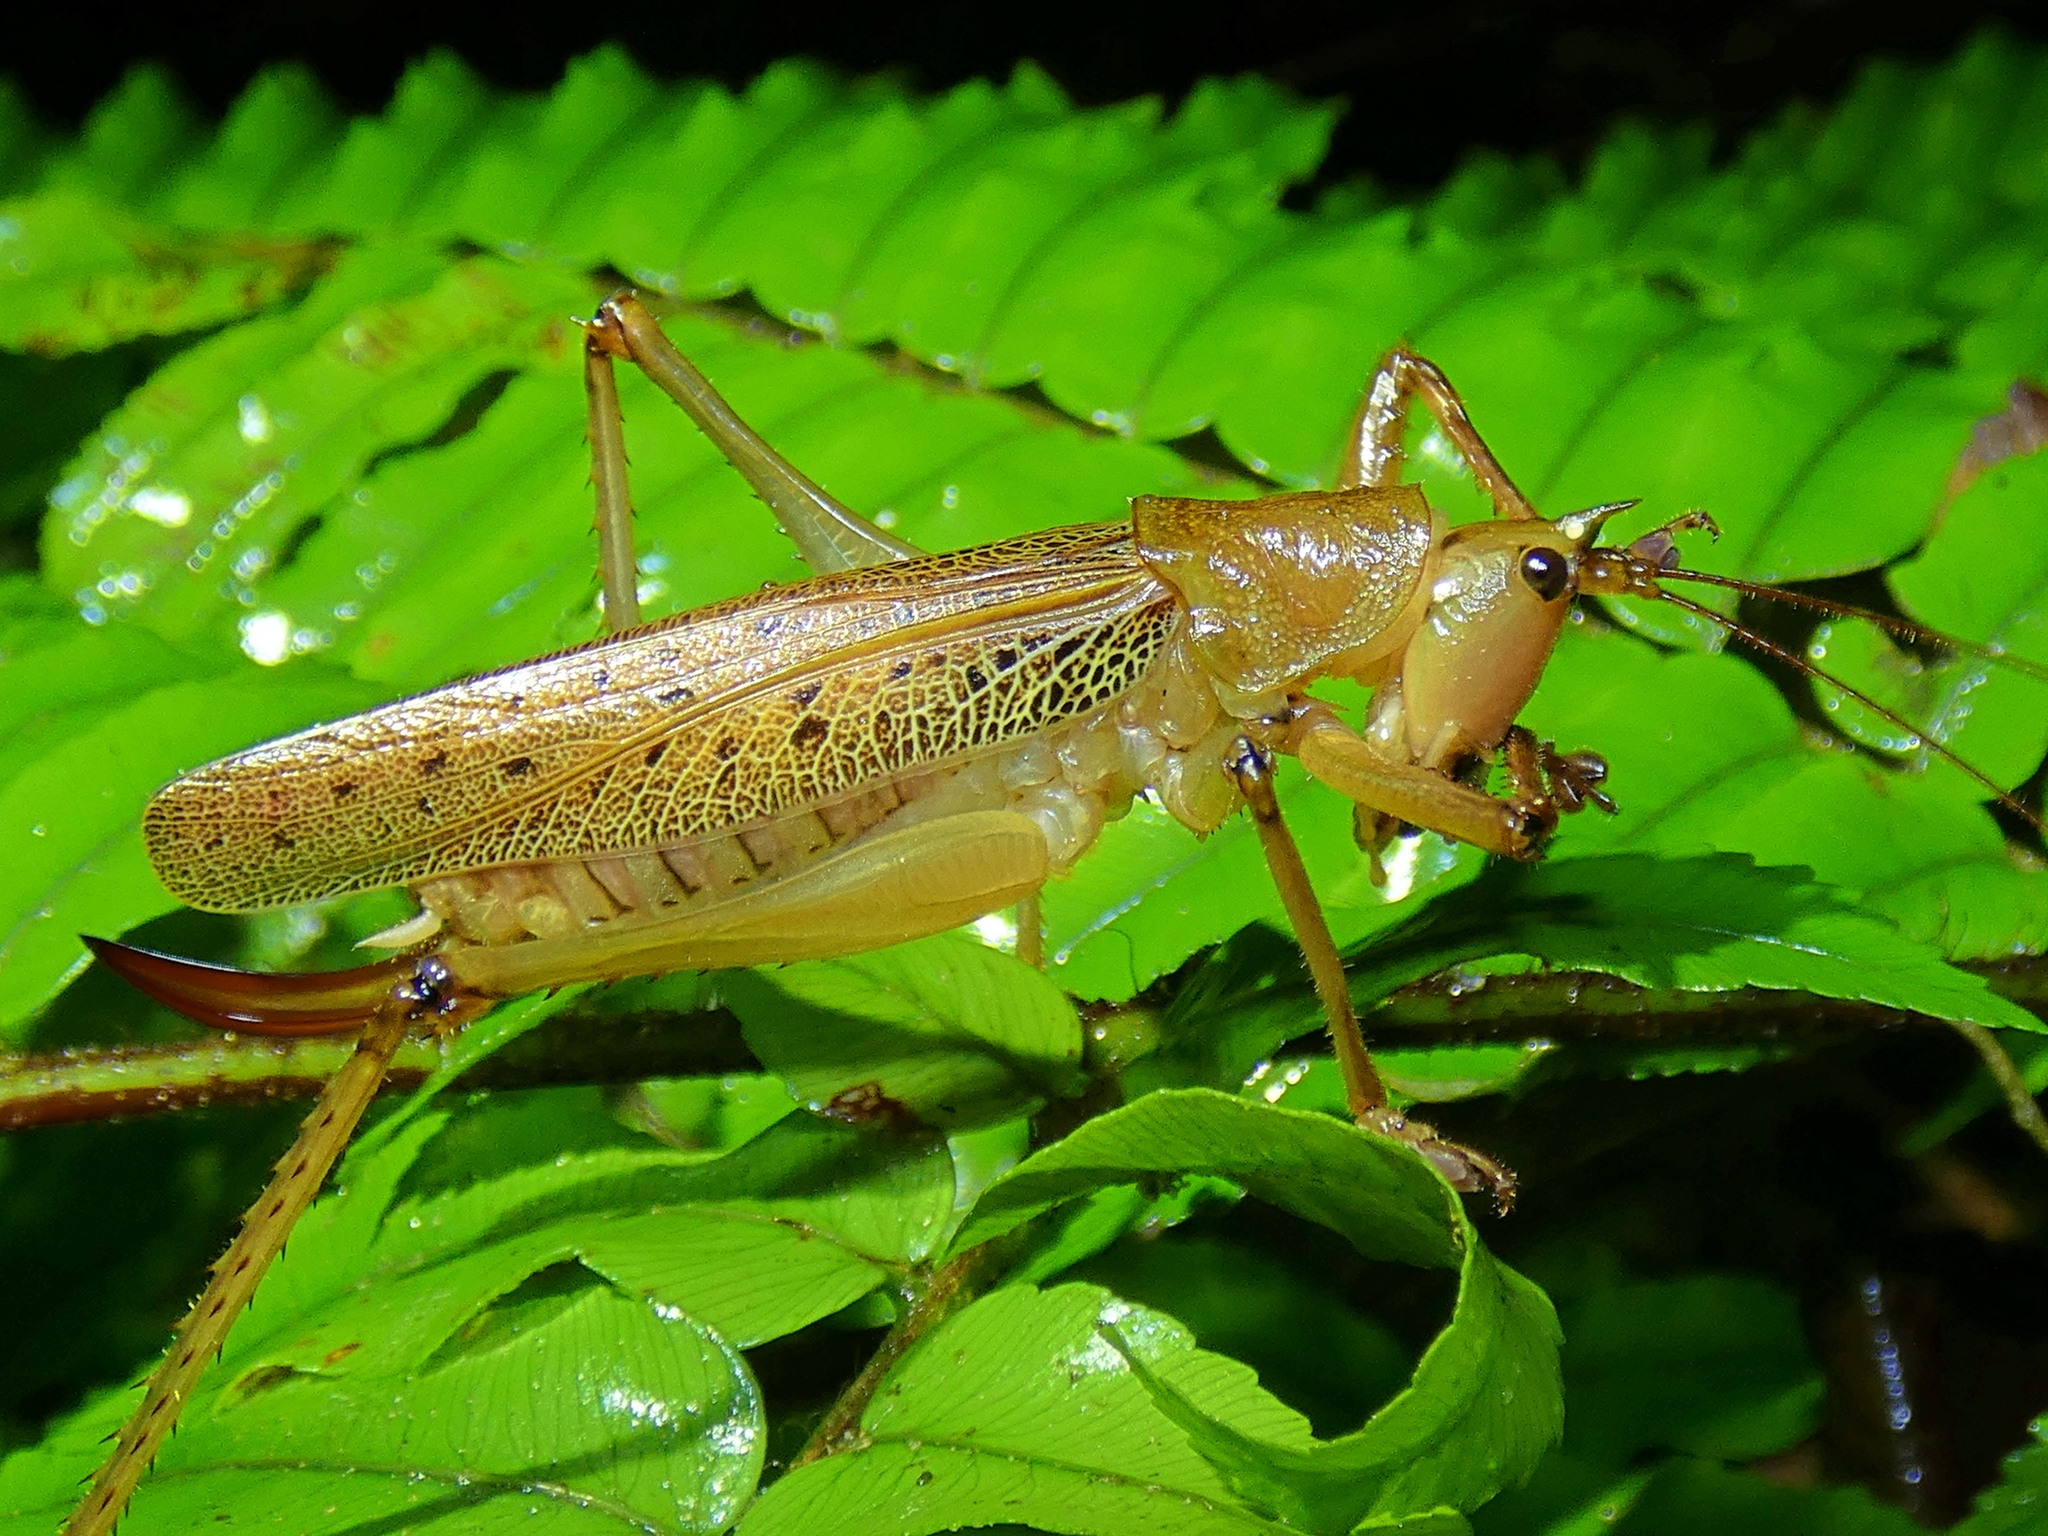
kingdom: Animalia
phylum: Arthropoda
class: Insecta
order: Orthoptera
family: Tettigoniidae
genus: Barbaragraecia
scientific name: Barbaragraecia richardsoni
